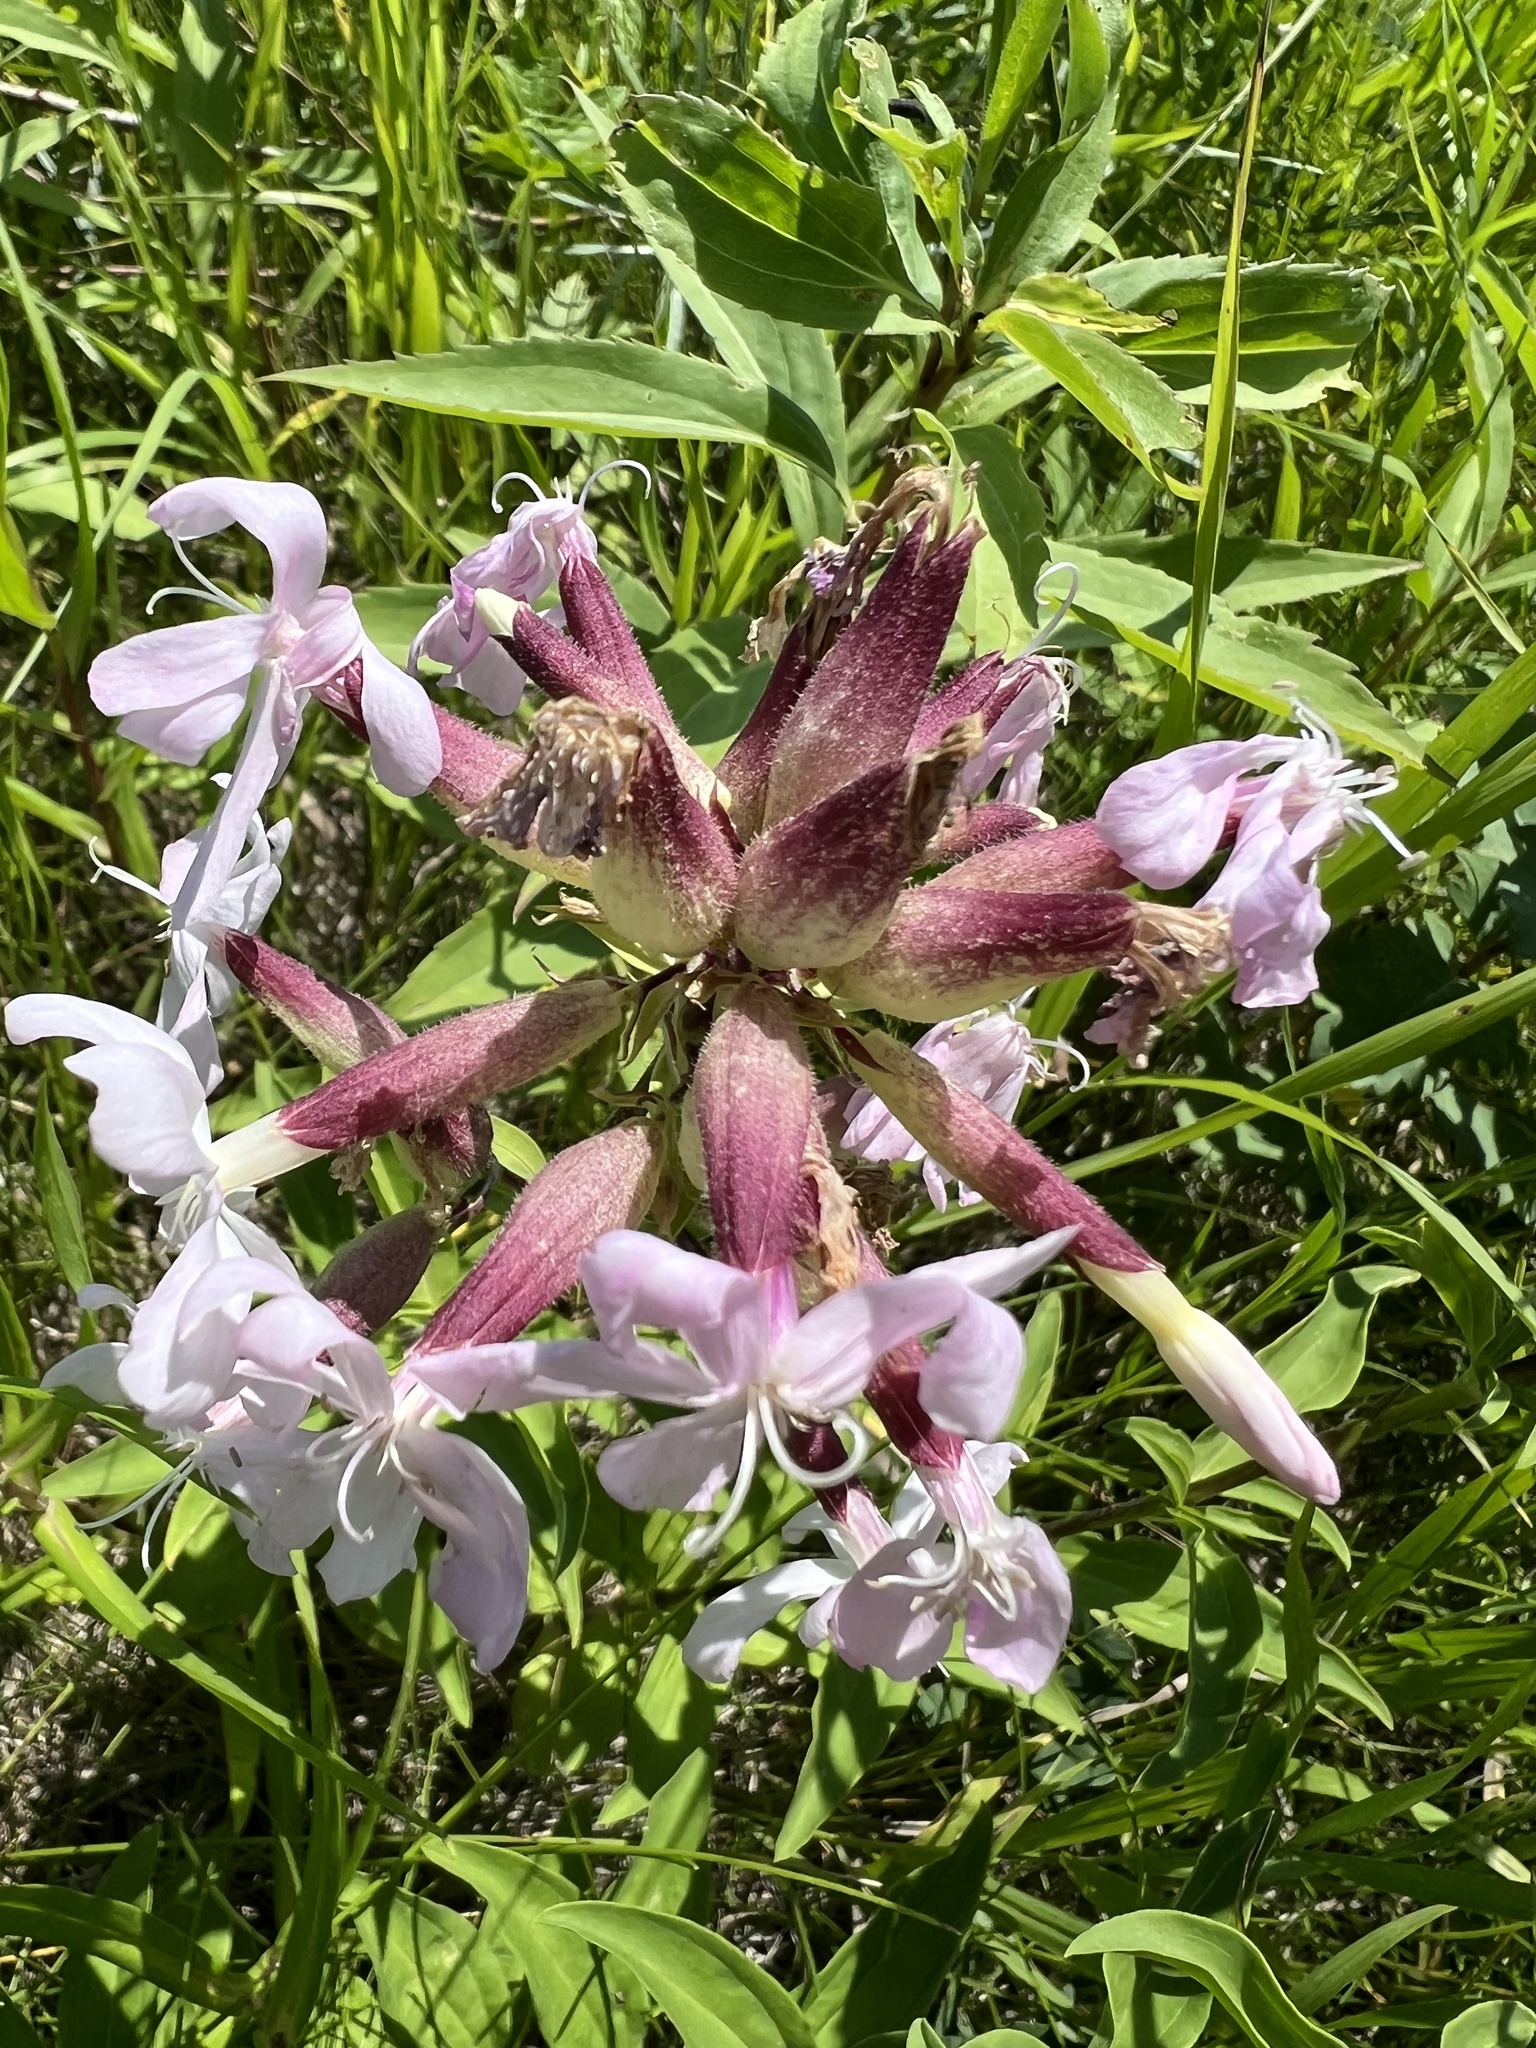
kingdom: Plantae
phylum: Tracheophyta
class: Magnoliopsida
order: Caryophyllales
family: Caryophyllaceae
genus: Saponaria
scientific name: Saponaria officinalis
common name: Soapwort
